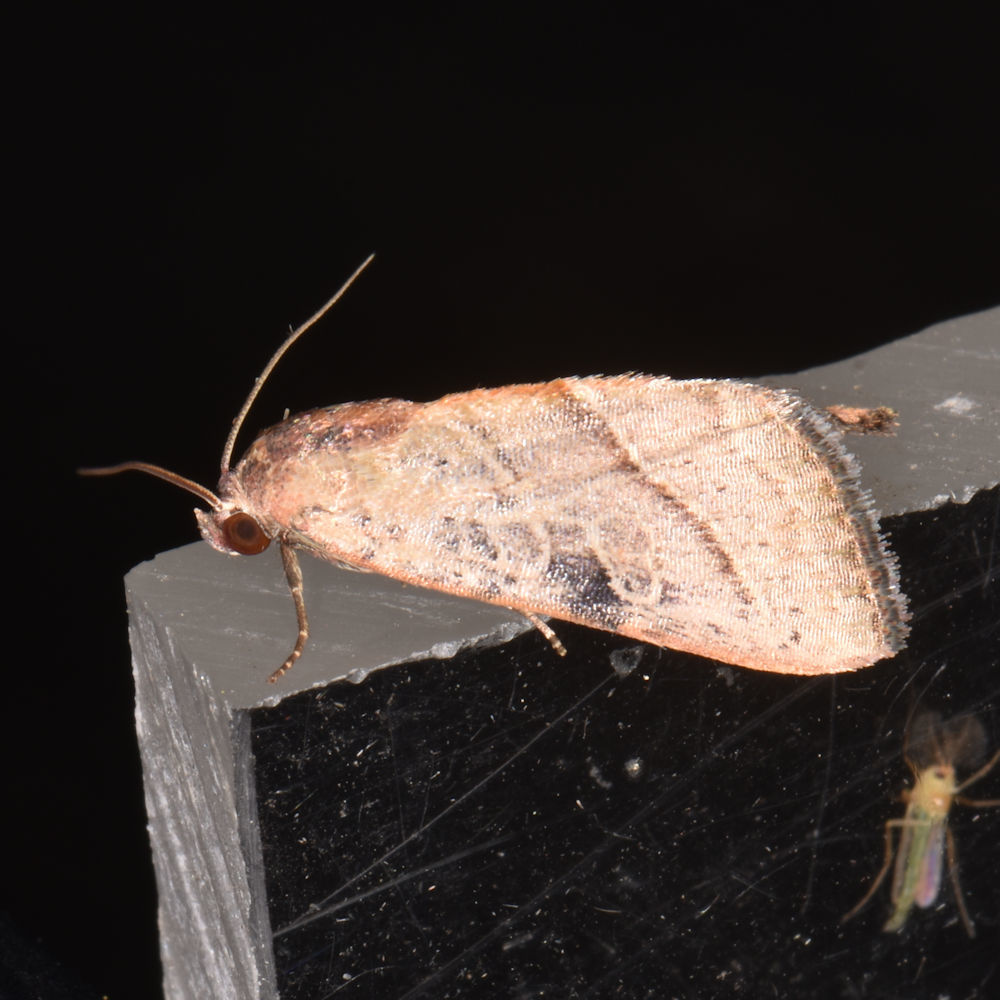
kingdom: Animalia
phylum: Arthropoda
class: Insecta
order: Lepidoptera
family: Noctuidae
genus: Galgula
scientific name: Galgula partita
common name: Wedgeling
